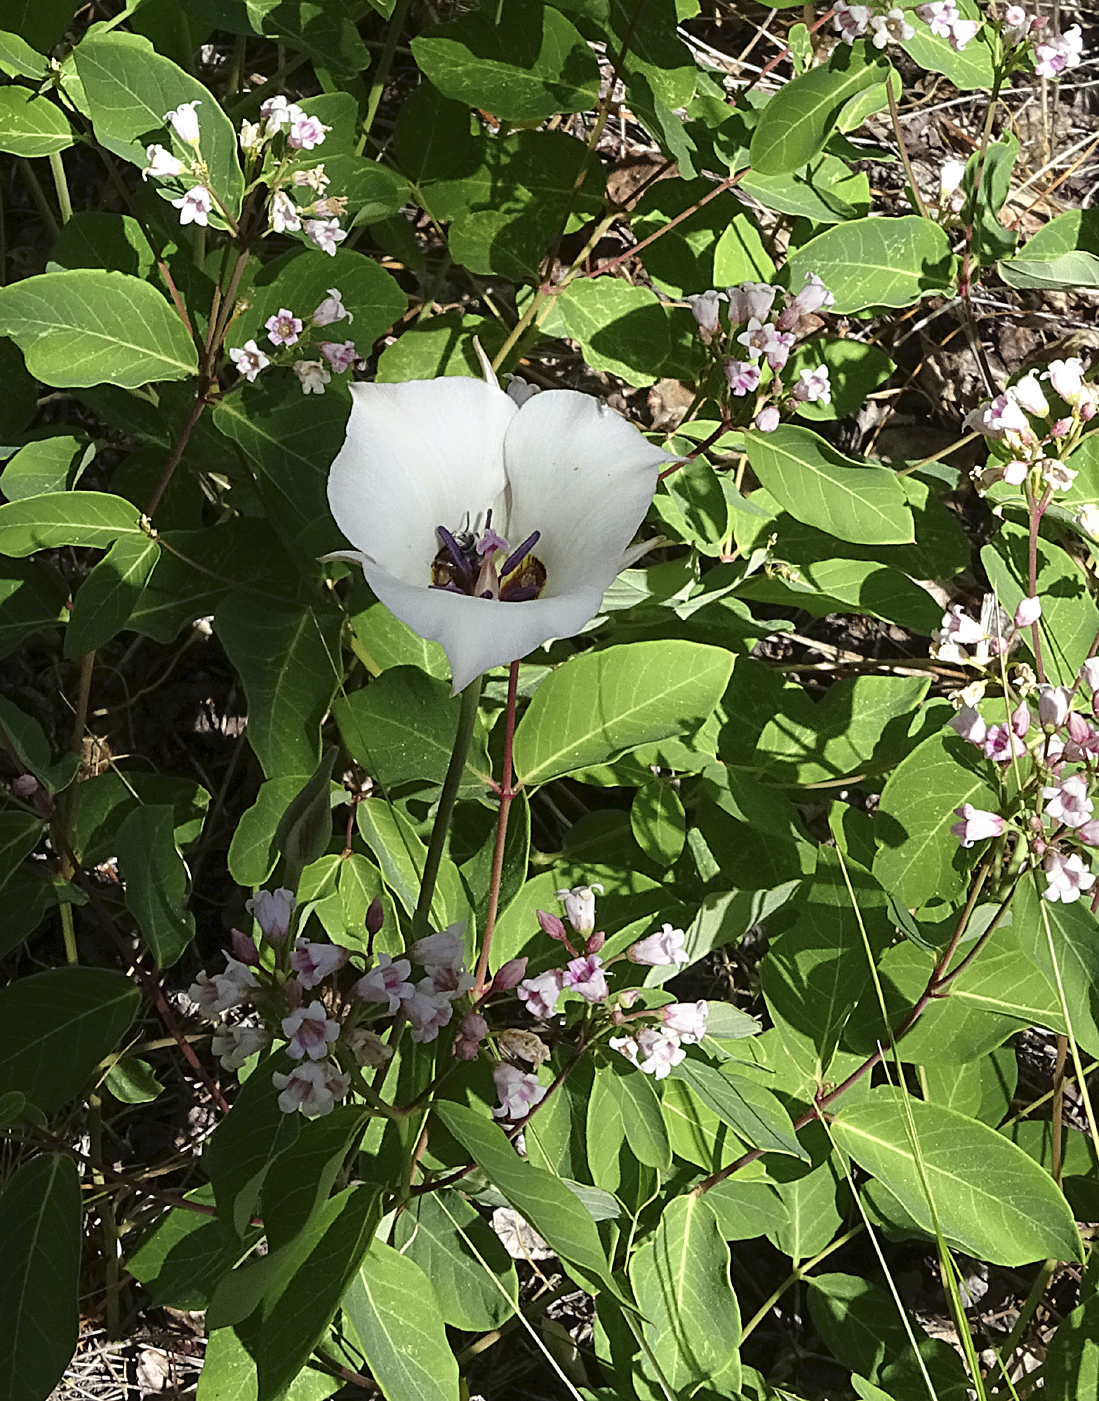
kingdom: Plantae
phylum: Tracheophyta
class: Liliopsida
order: Liliales
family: Liliaceae
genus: Calochortus
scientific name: Calochortus bruneaunis
